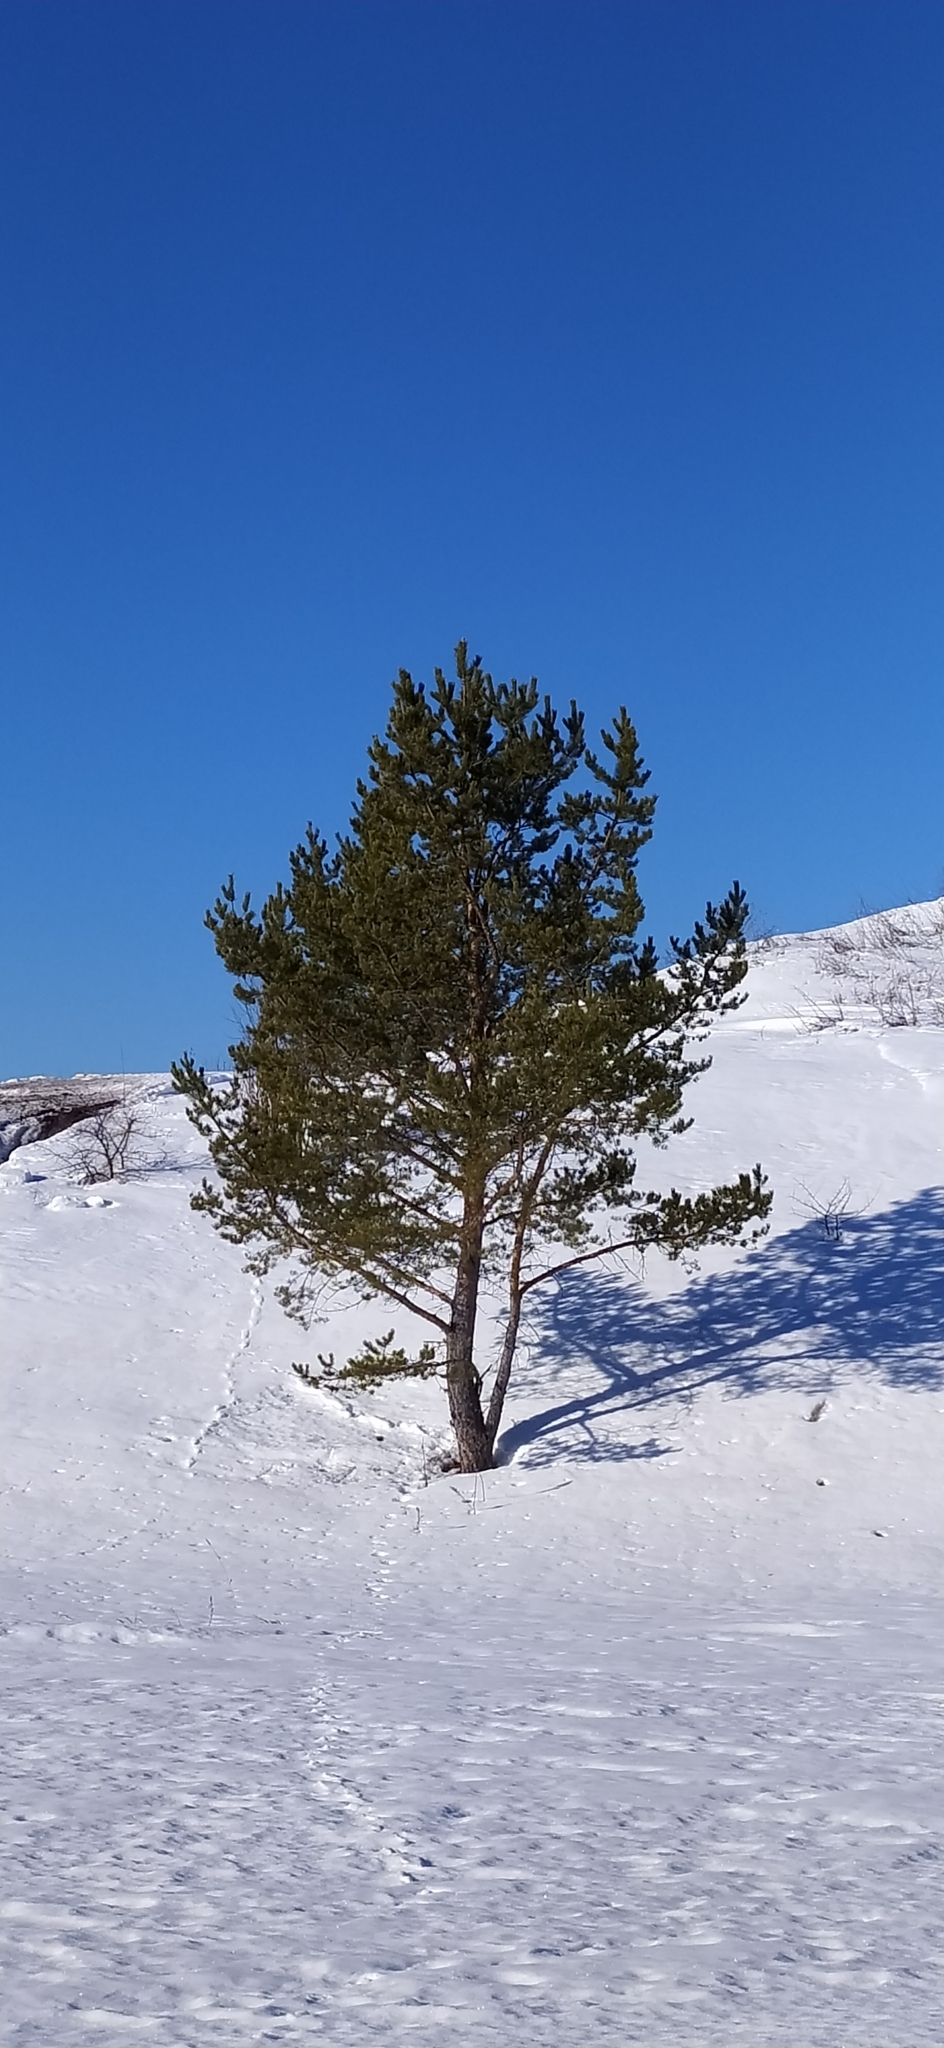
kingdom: Plantae
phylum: Tracheophyta
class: Pinopsida
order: Pinales
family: Pinaceae
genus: Pinus
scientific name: Pinus sylvestris
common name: Scots pine
